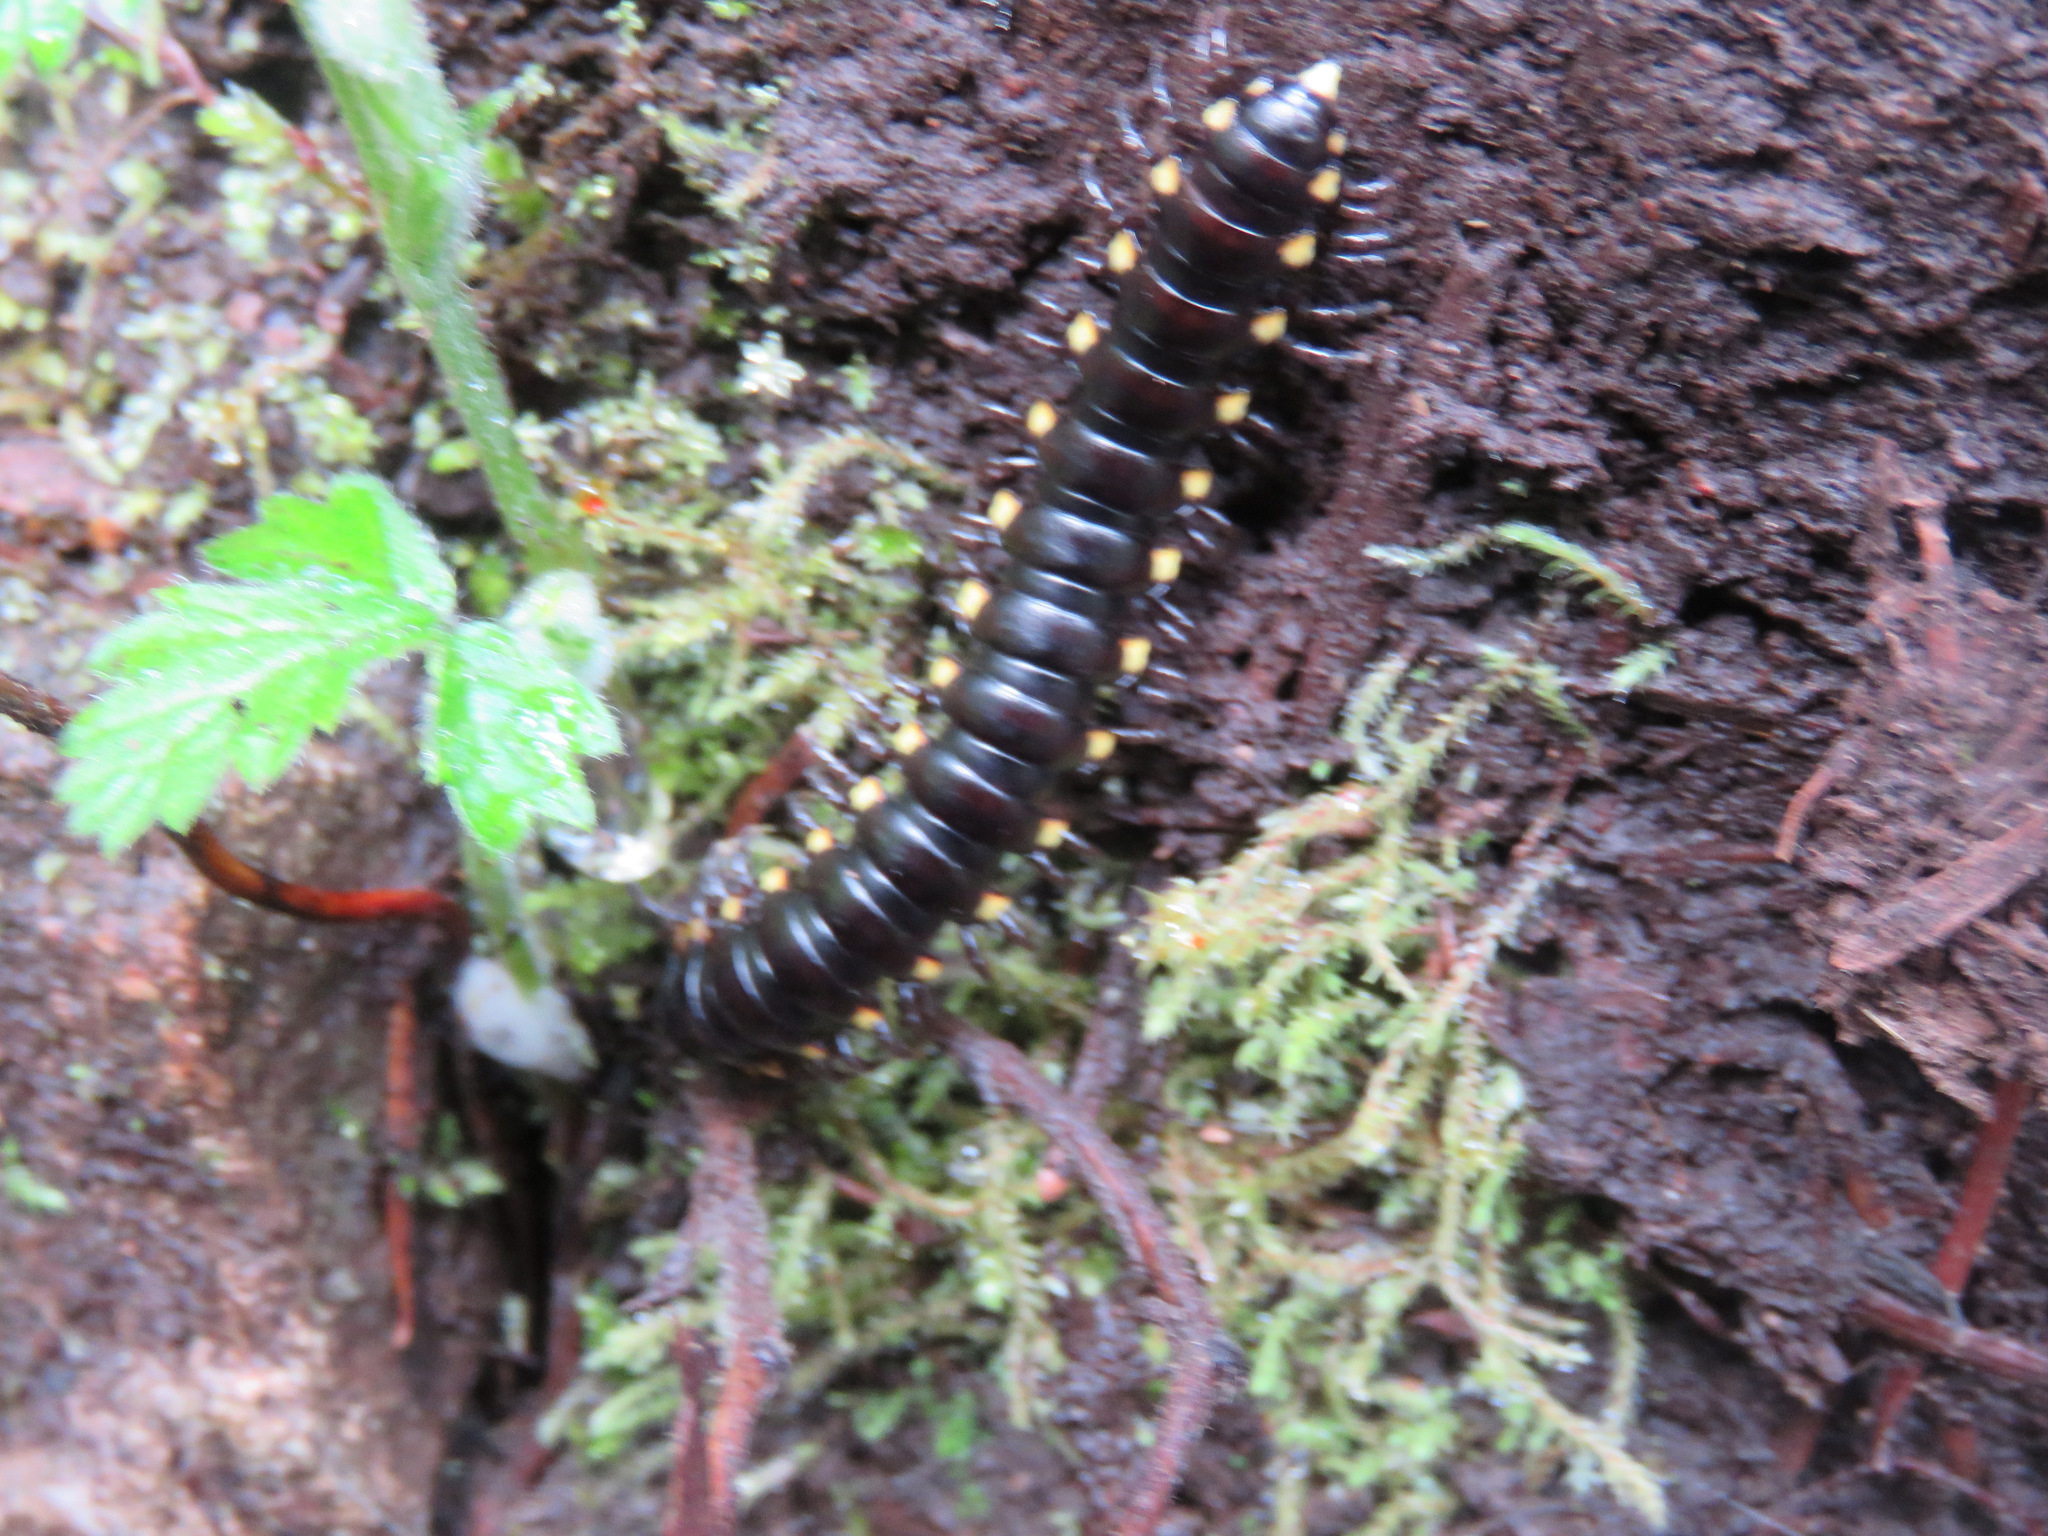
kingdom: Animalia
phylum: Arthropoda
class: Diplopoda
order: Polydesmida
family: Xystodesmidae
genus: Harpaphe
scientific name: Harpaphe haydeniana
